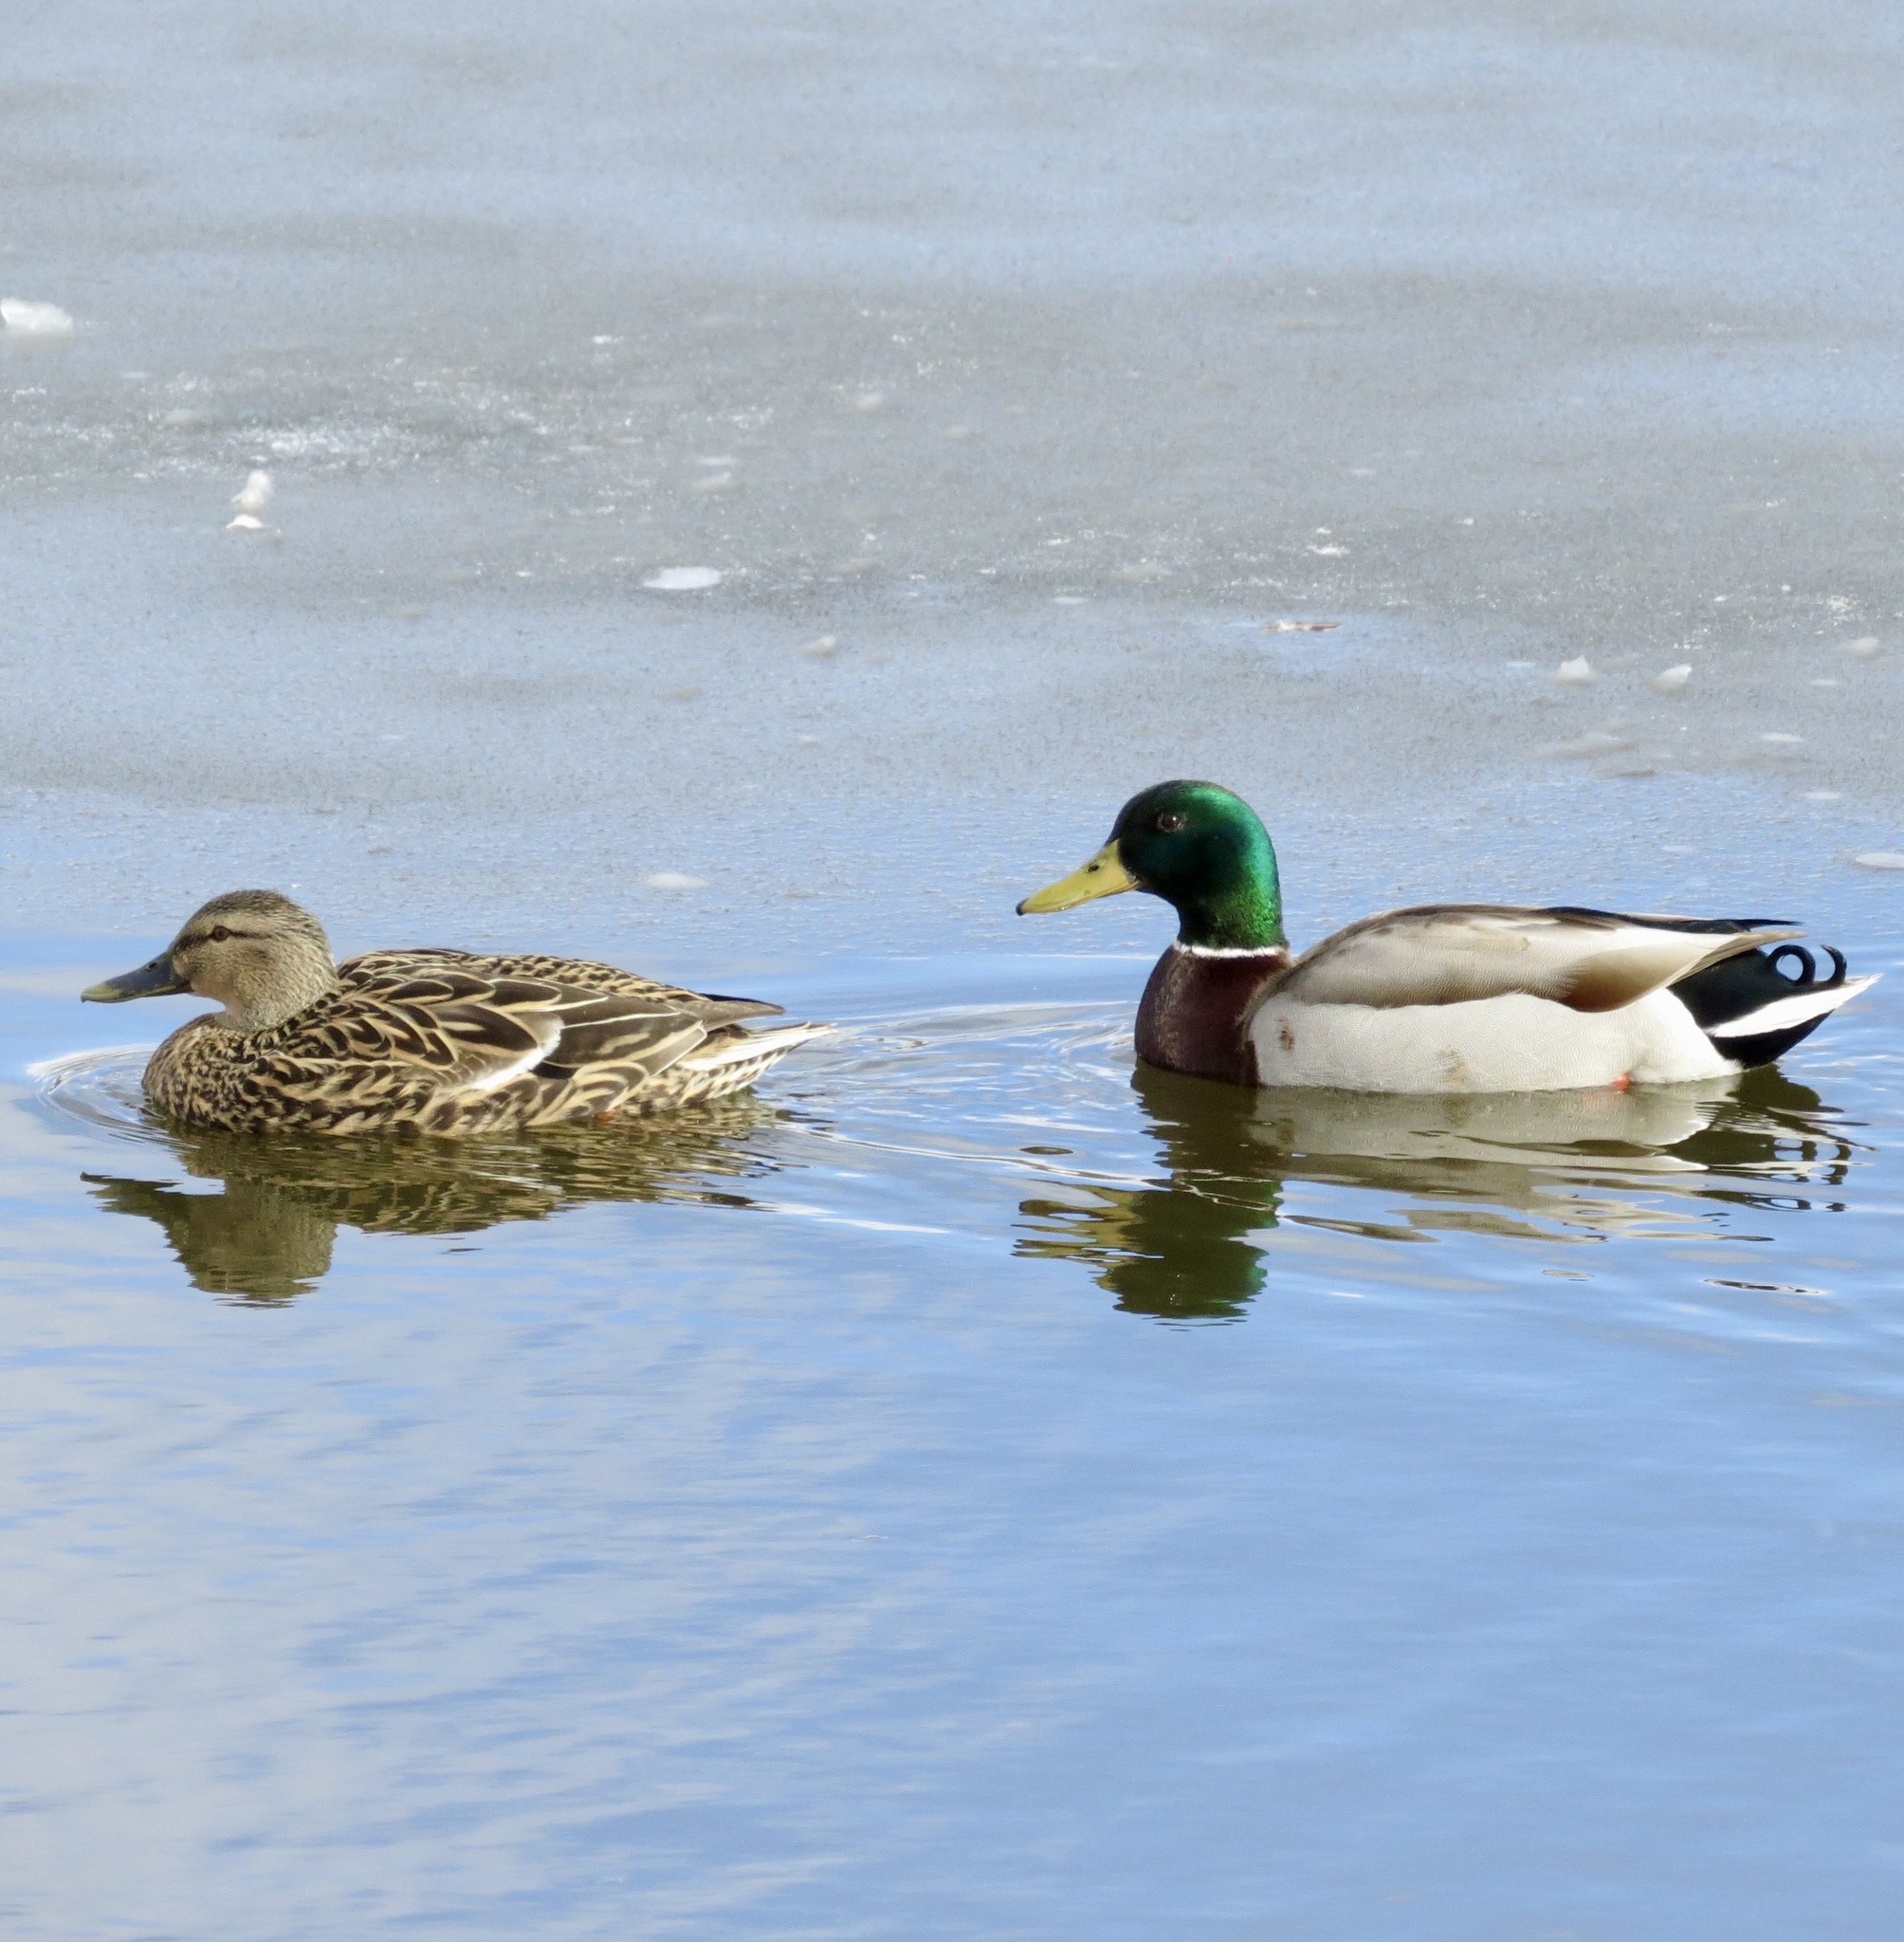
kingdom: Animalia
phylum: Chordata
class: Aves
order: Anseriformes
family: Anatidae
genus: Anas
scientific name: Anas platyrhynchos
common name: Mallard
